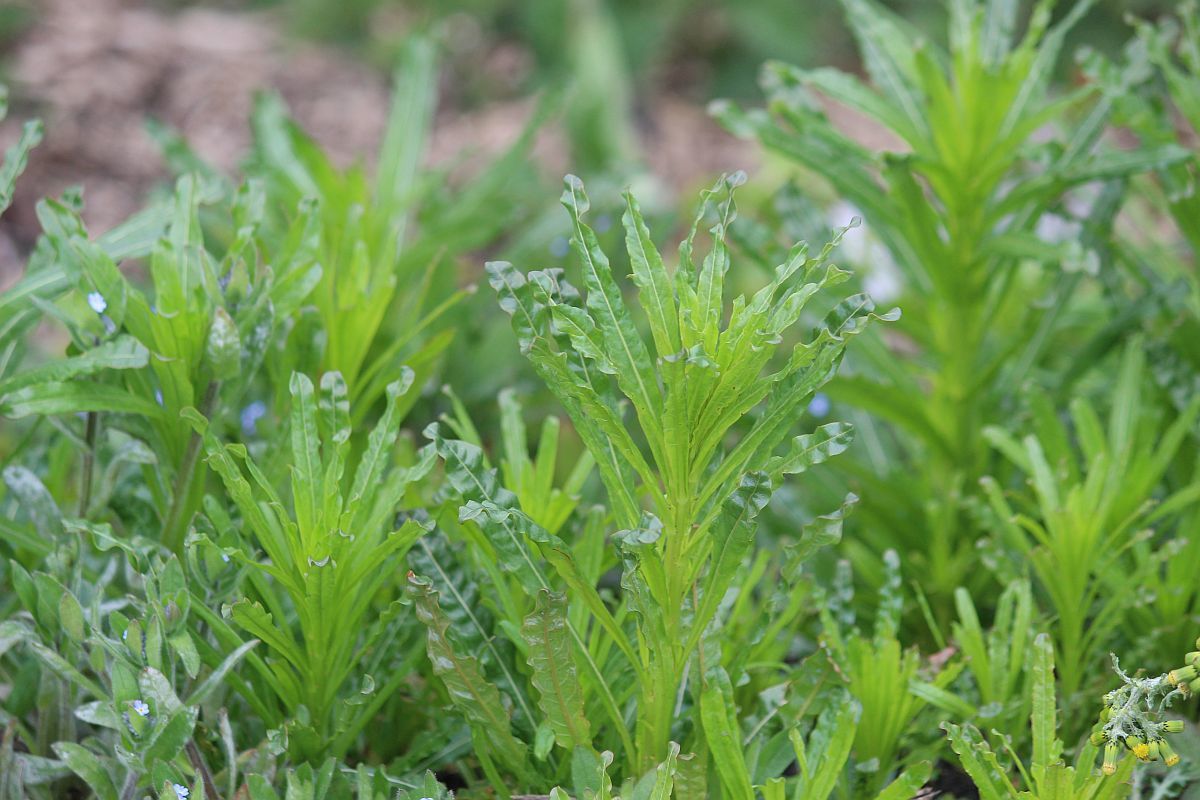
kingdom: Plantae
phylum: Tracheophyta
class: Magnoliopsida
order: Brassicales
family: Resedaceae
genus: Reseda
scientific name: Reseda luteola
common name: Weld
